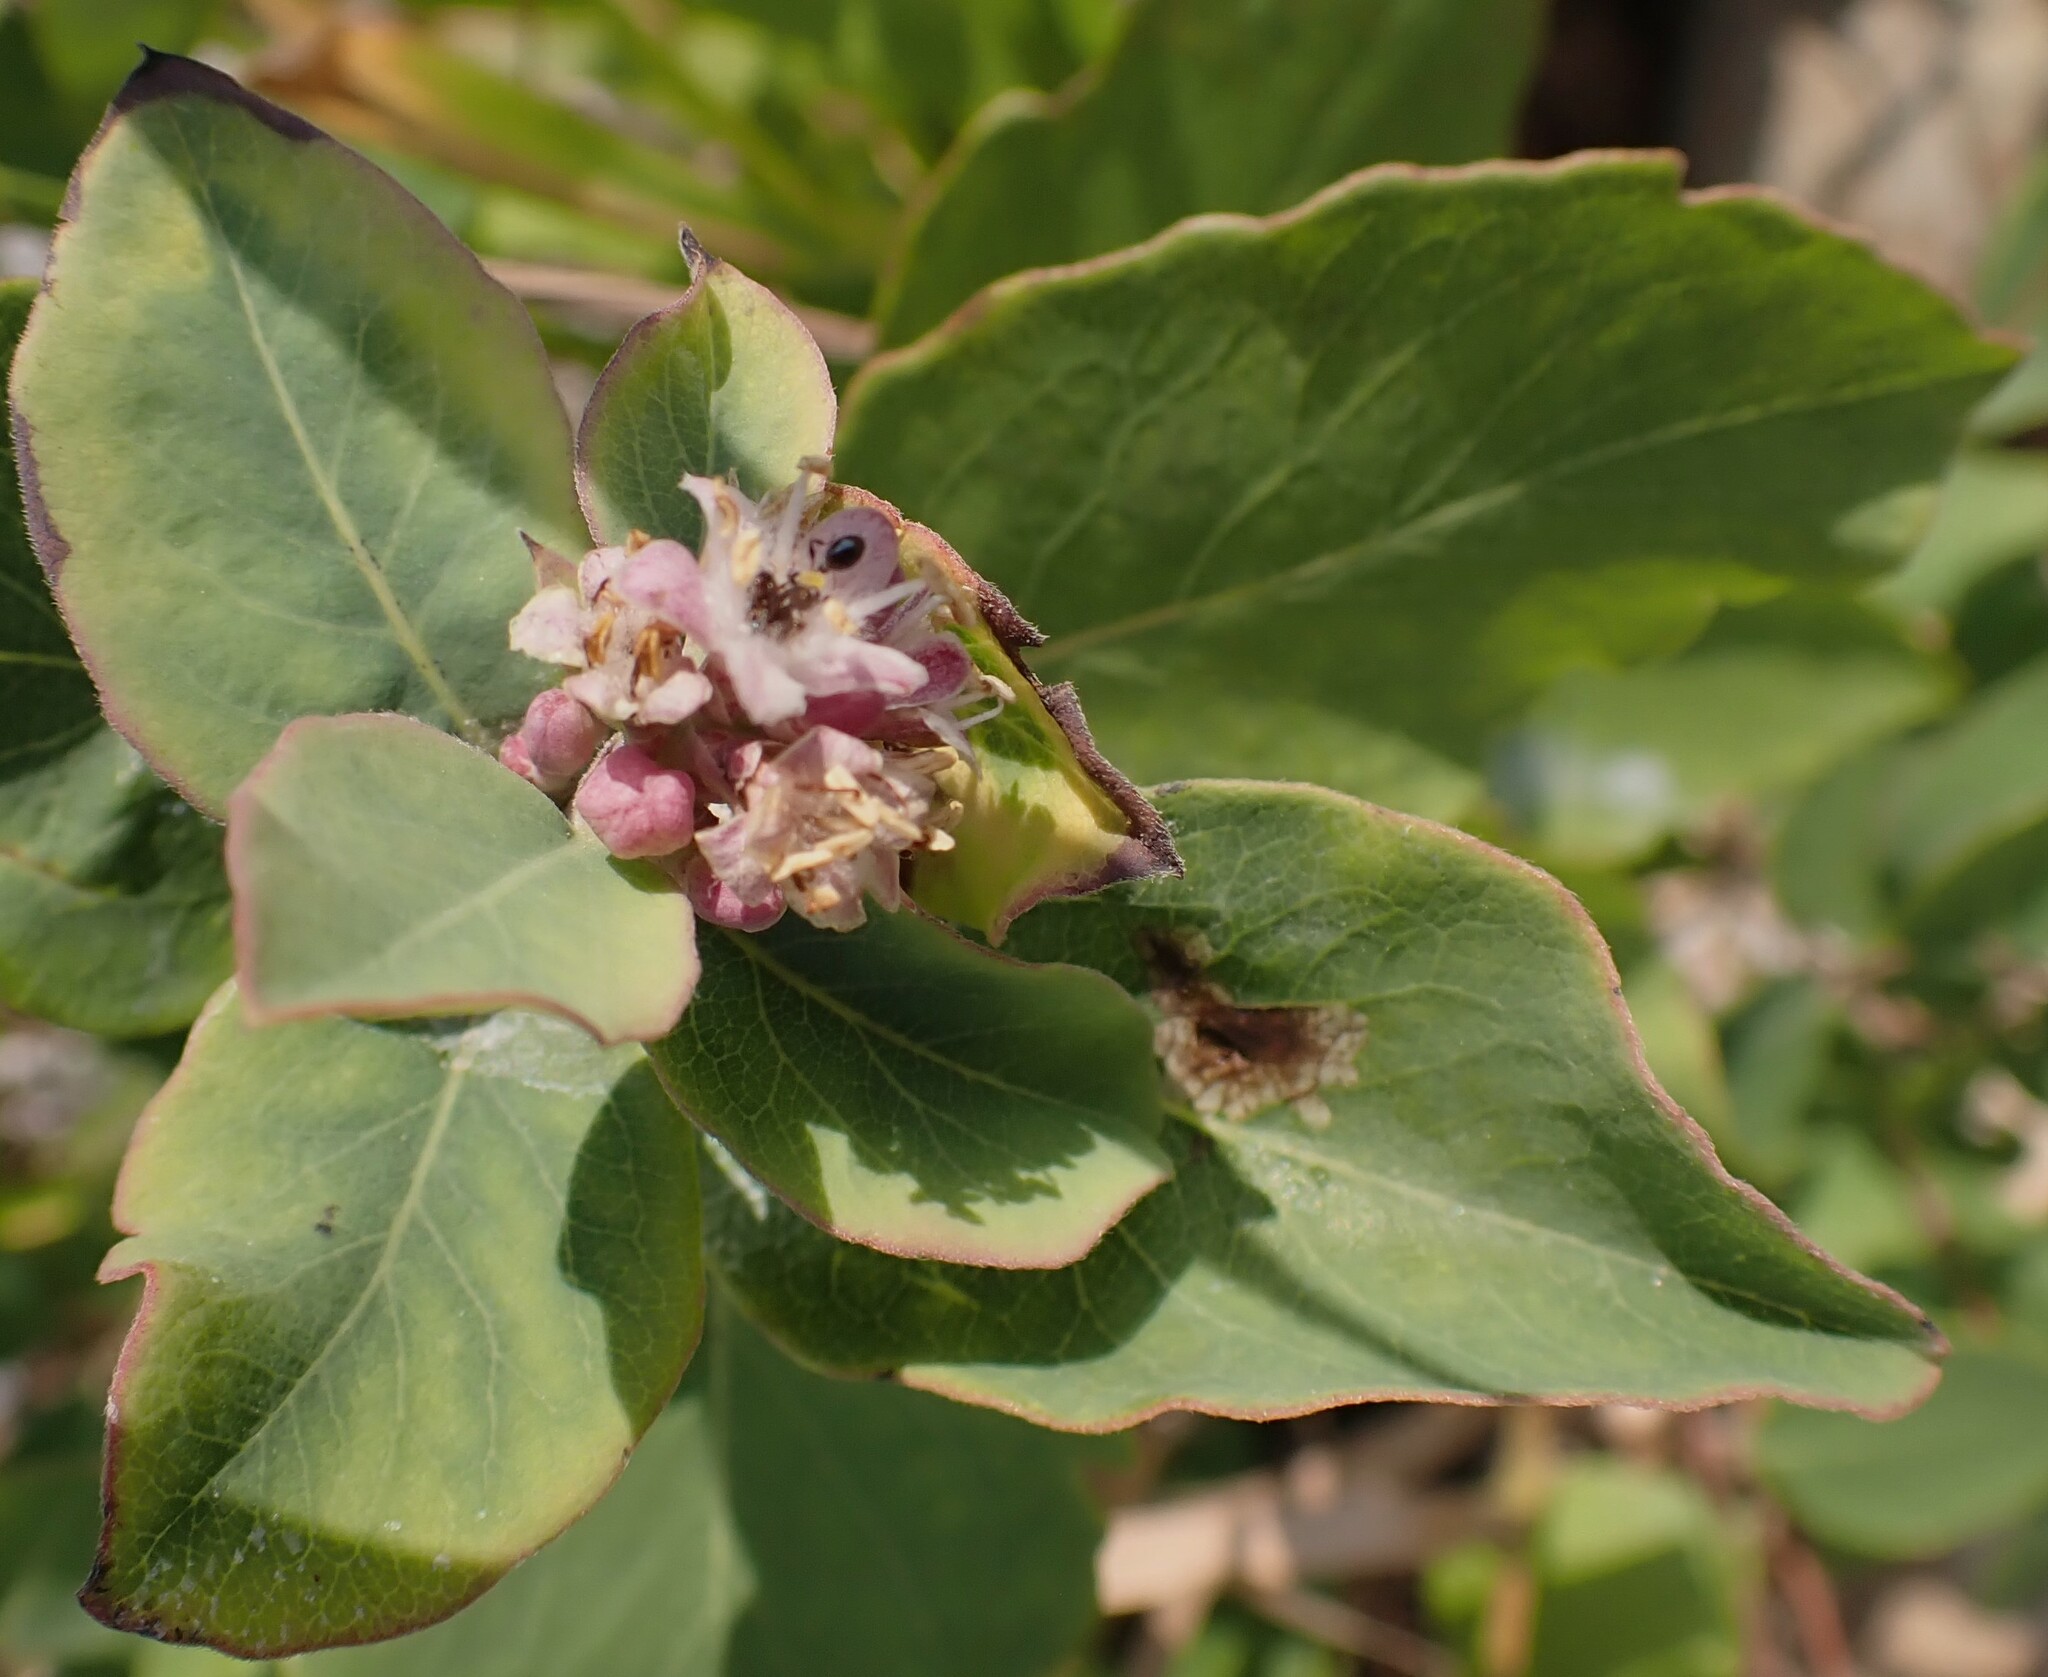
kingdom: Plantae
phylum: Tracheophyta
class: Magnoliopsida
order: Dipsacales
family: Caprifoliaceae
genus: Symphoricarpos
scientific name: Symphoricarpos occidentalis
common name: Wolfberry
